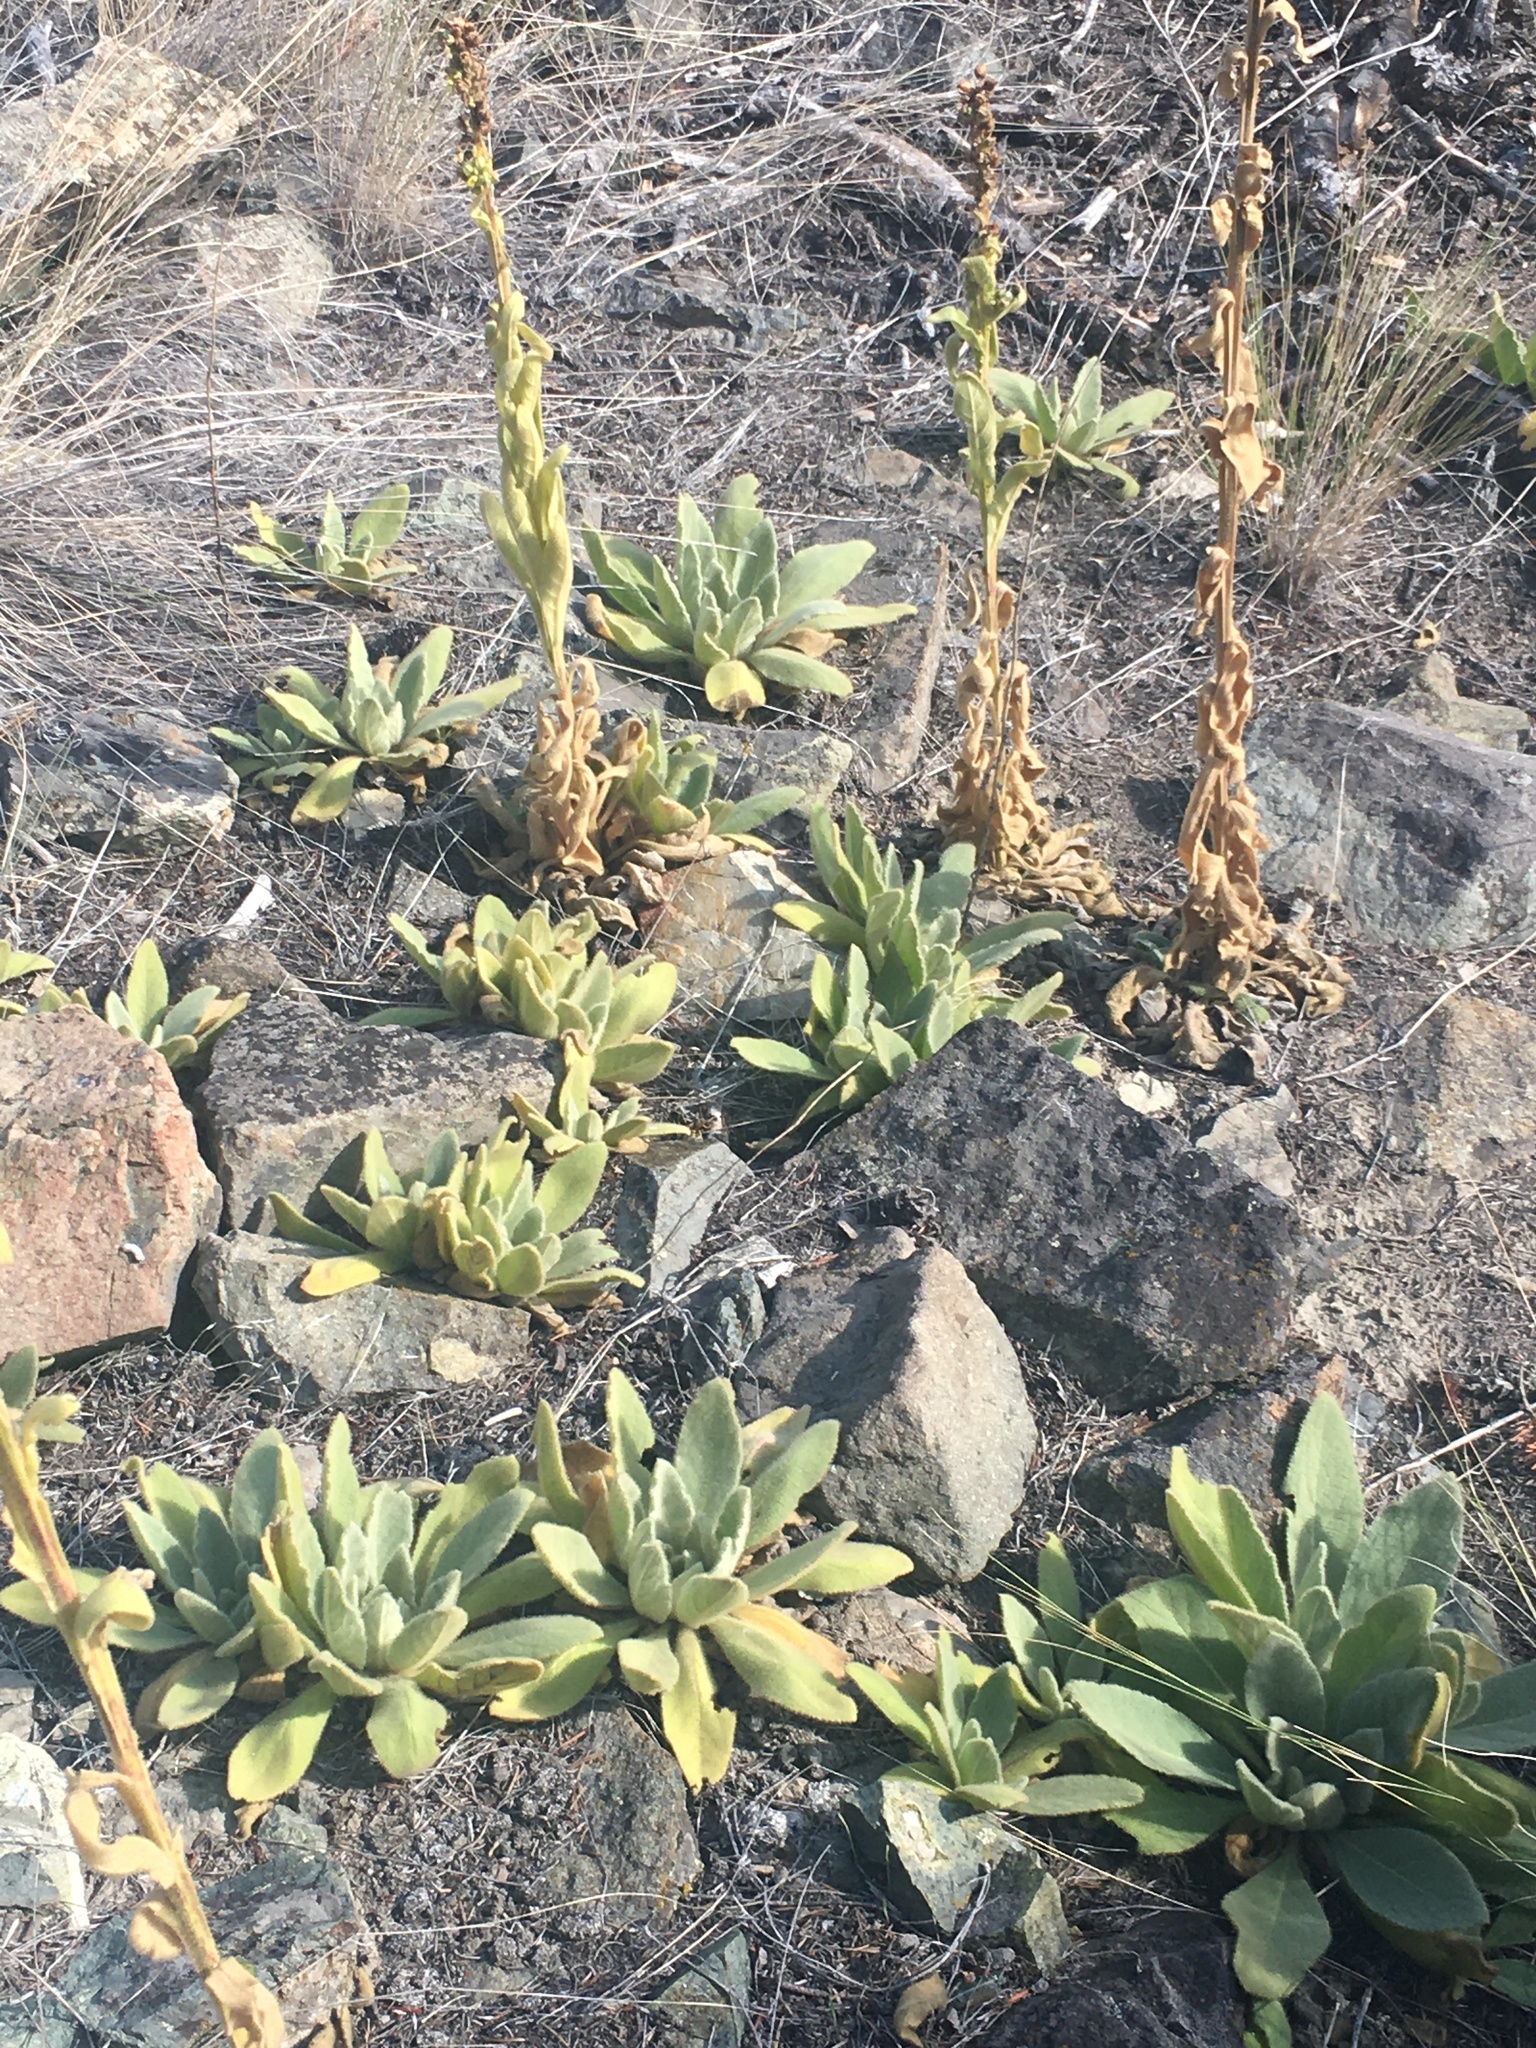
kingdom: Plantae
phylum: Tracheophyta
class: Magnoliopsida
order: Lamiales
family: Scrophulariaceae
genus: Verbascum
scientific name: Verbascum thapsus
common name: Common mullein
